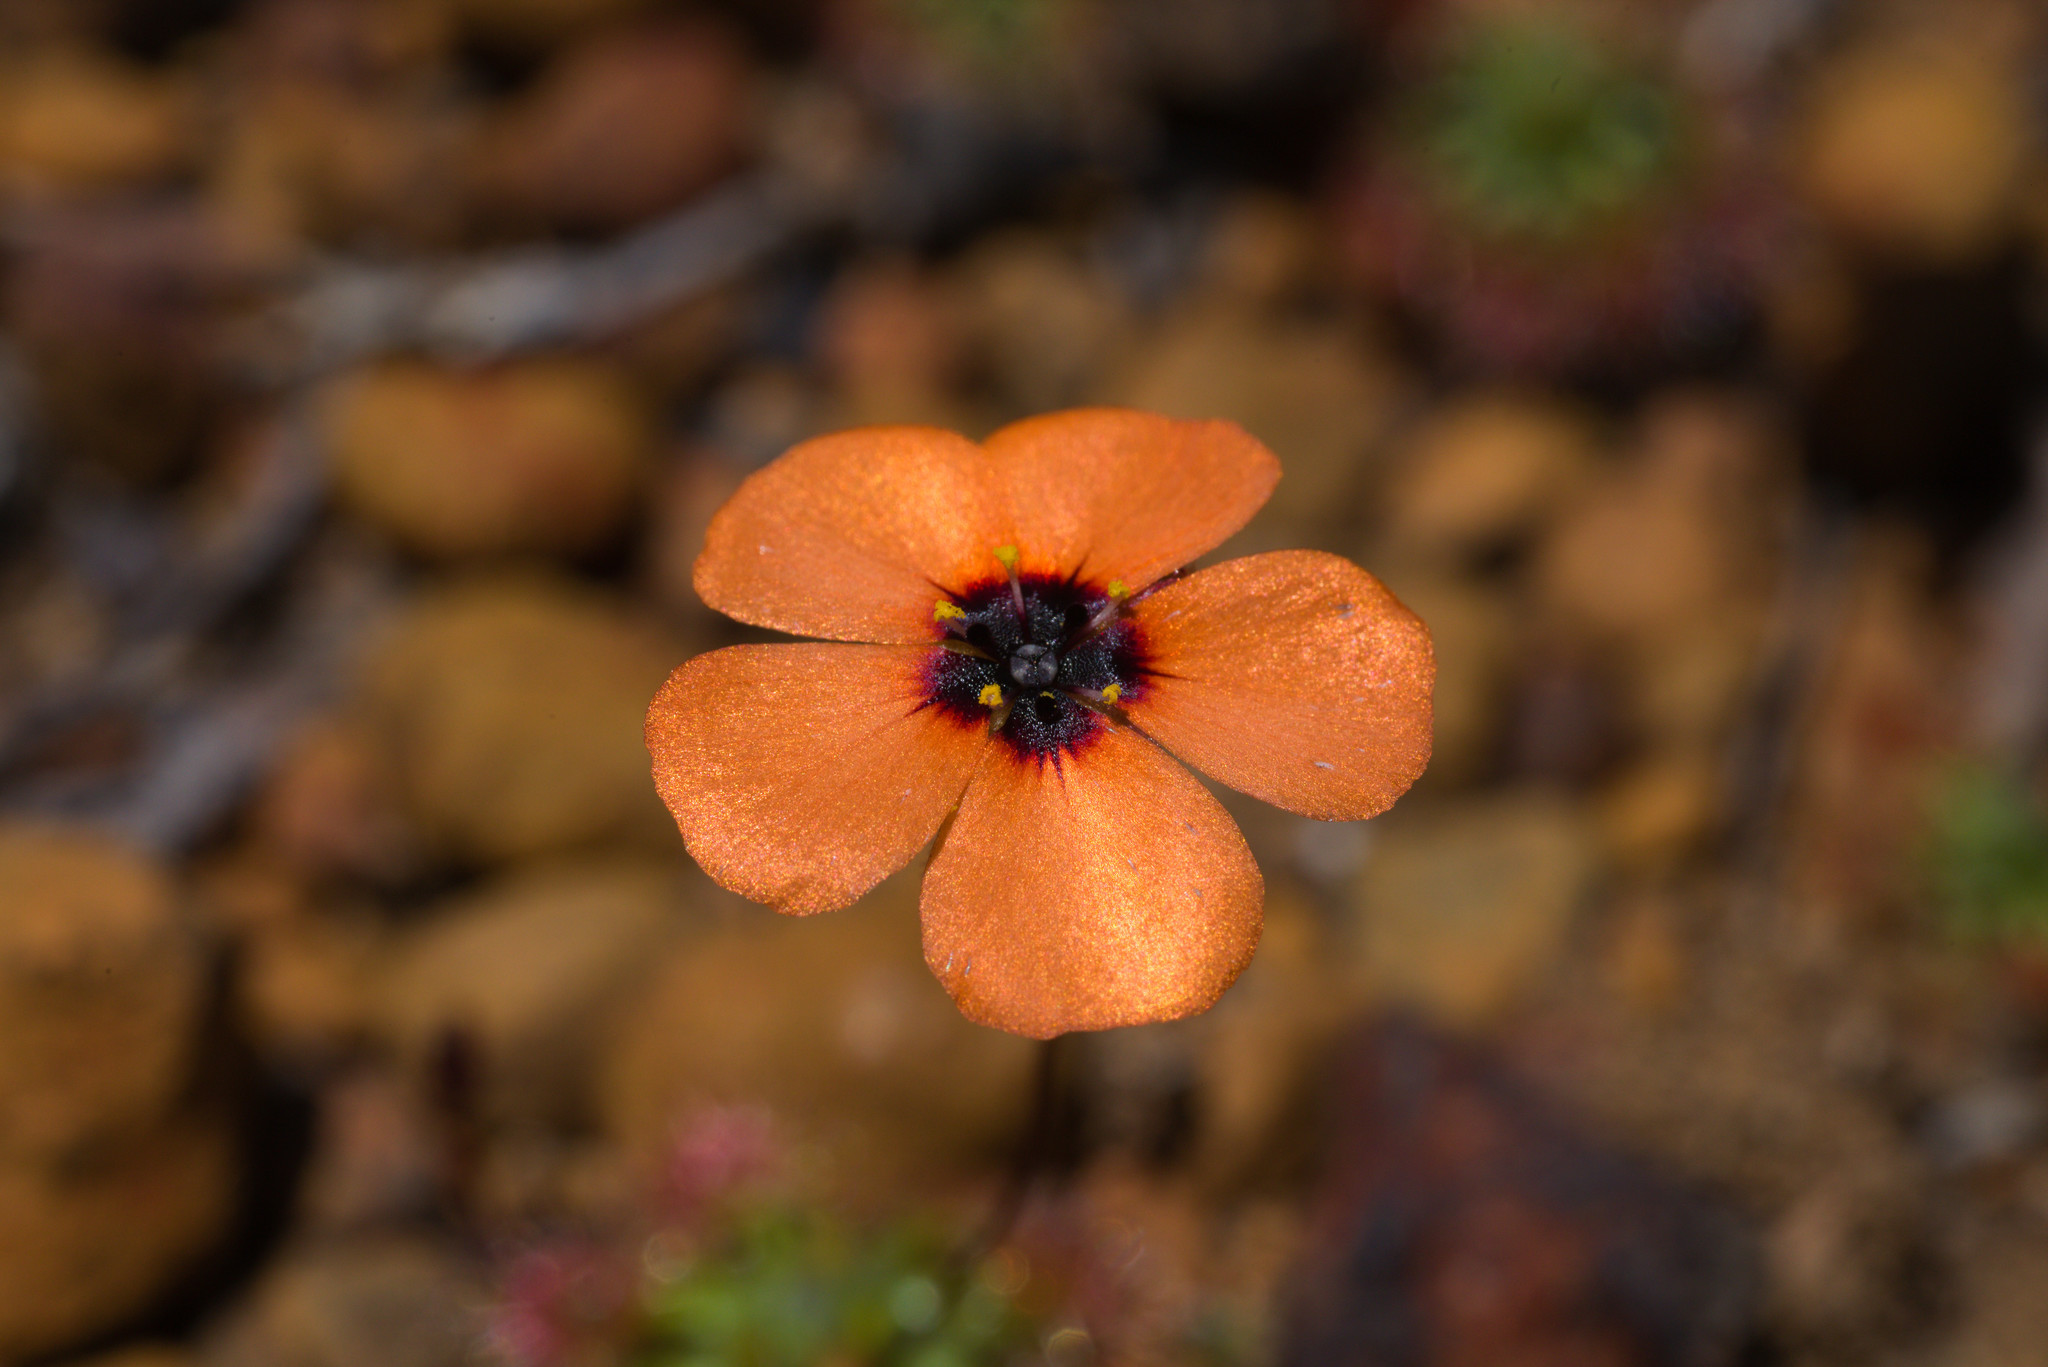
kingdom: Plantae
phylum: Tracheophyta
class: Magnoliopsida
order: Caryophyllales
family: Droseraceae
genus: Drosera
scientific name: Drosera hyperostigma
